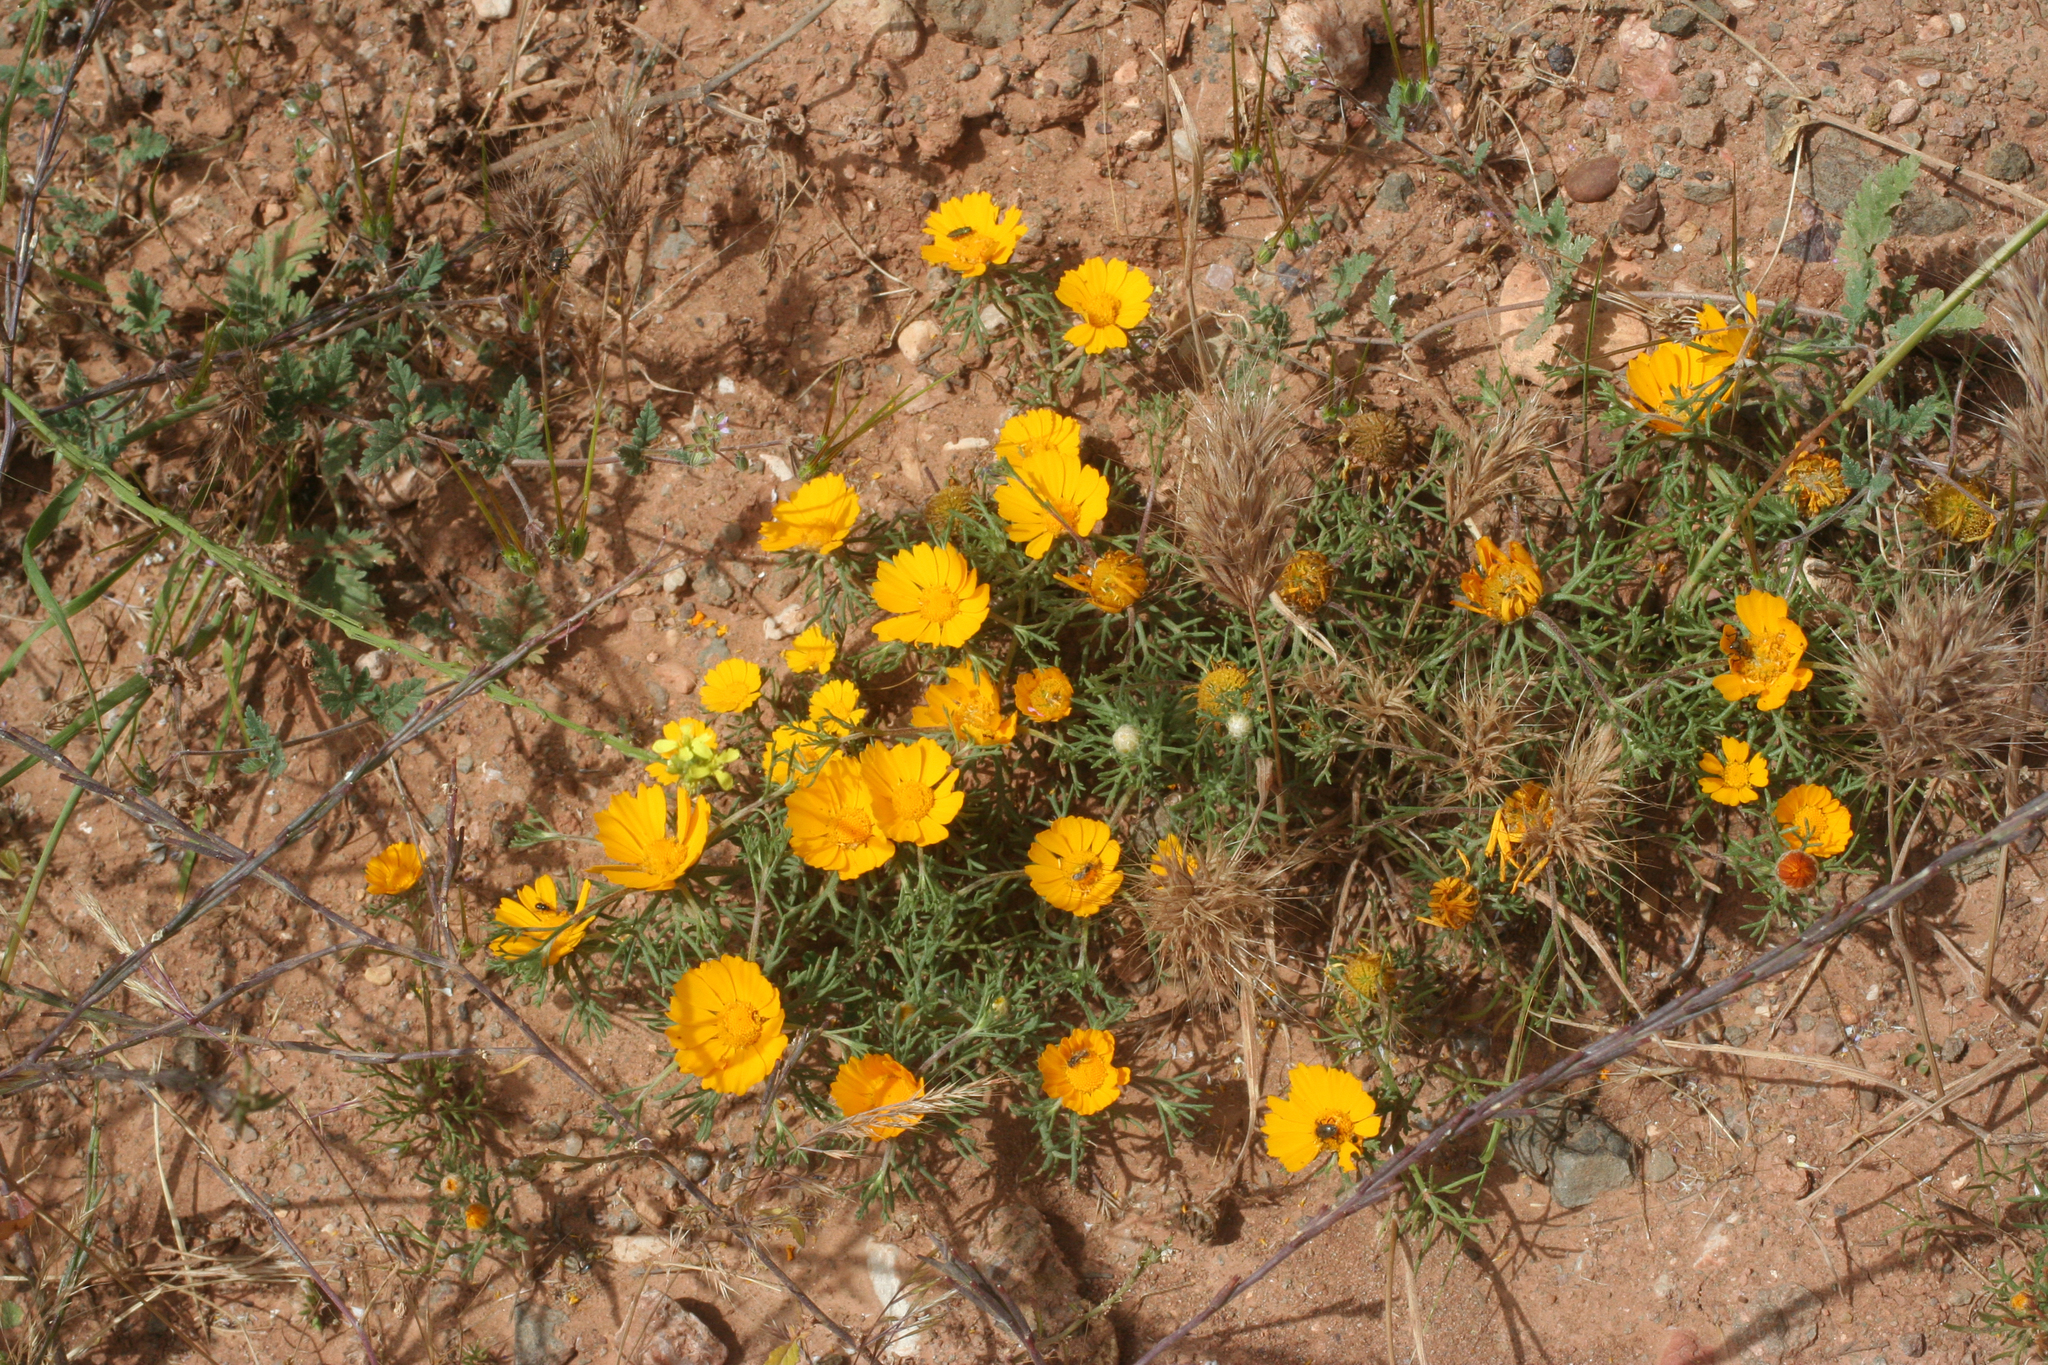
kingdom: Plantae
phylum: Tracheophyta
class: Magnoliopsida
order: Asterales
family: Asteraceae
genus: Cladanthus
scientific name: Cladanthus arabicus
